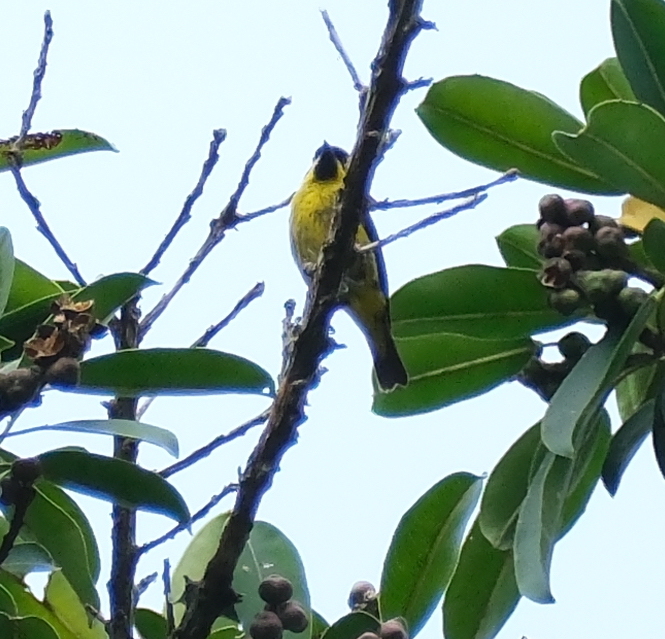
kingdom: Animalia
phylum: Chordata
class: Aves
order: Passeriformes
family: Thraupidae
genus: Dacnis
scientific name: Dacnis flaviventer
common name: Yellow-bellied dacnis
